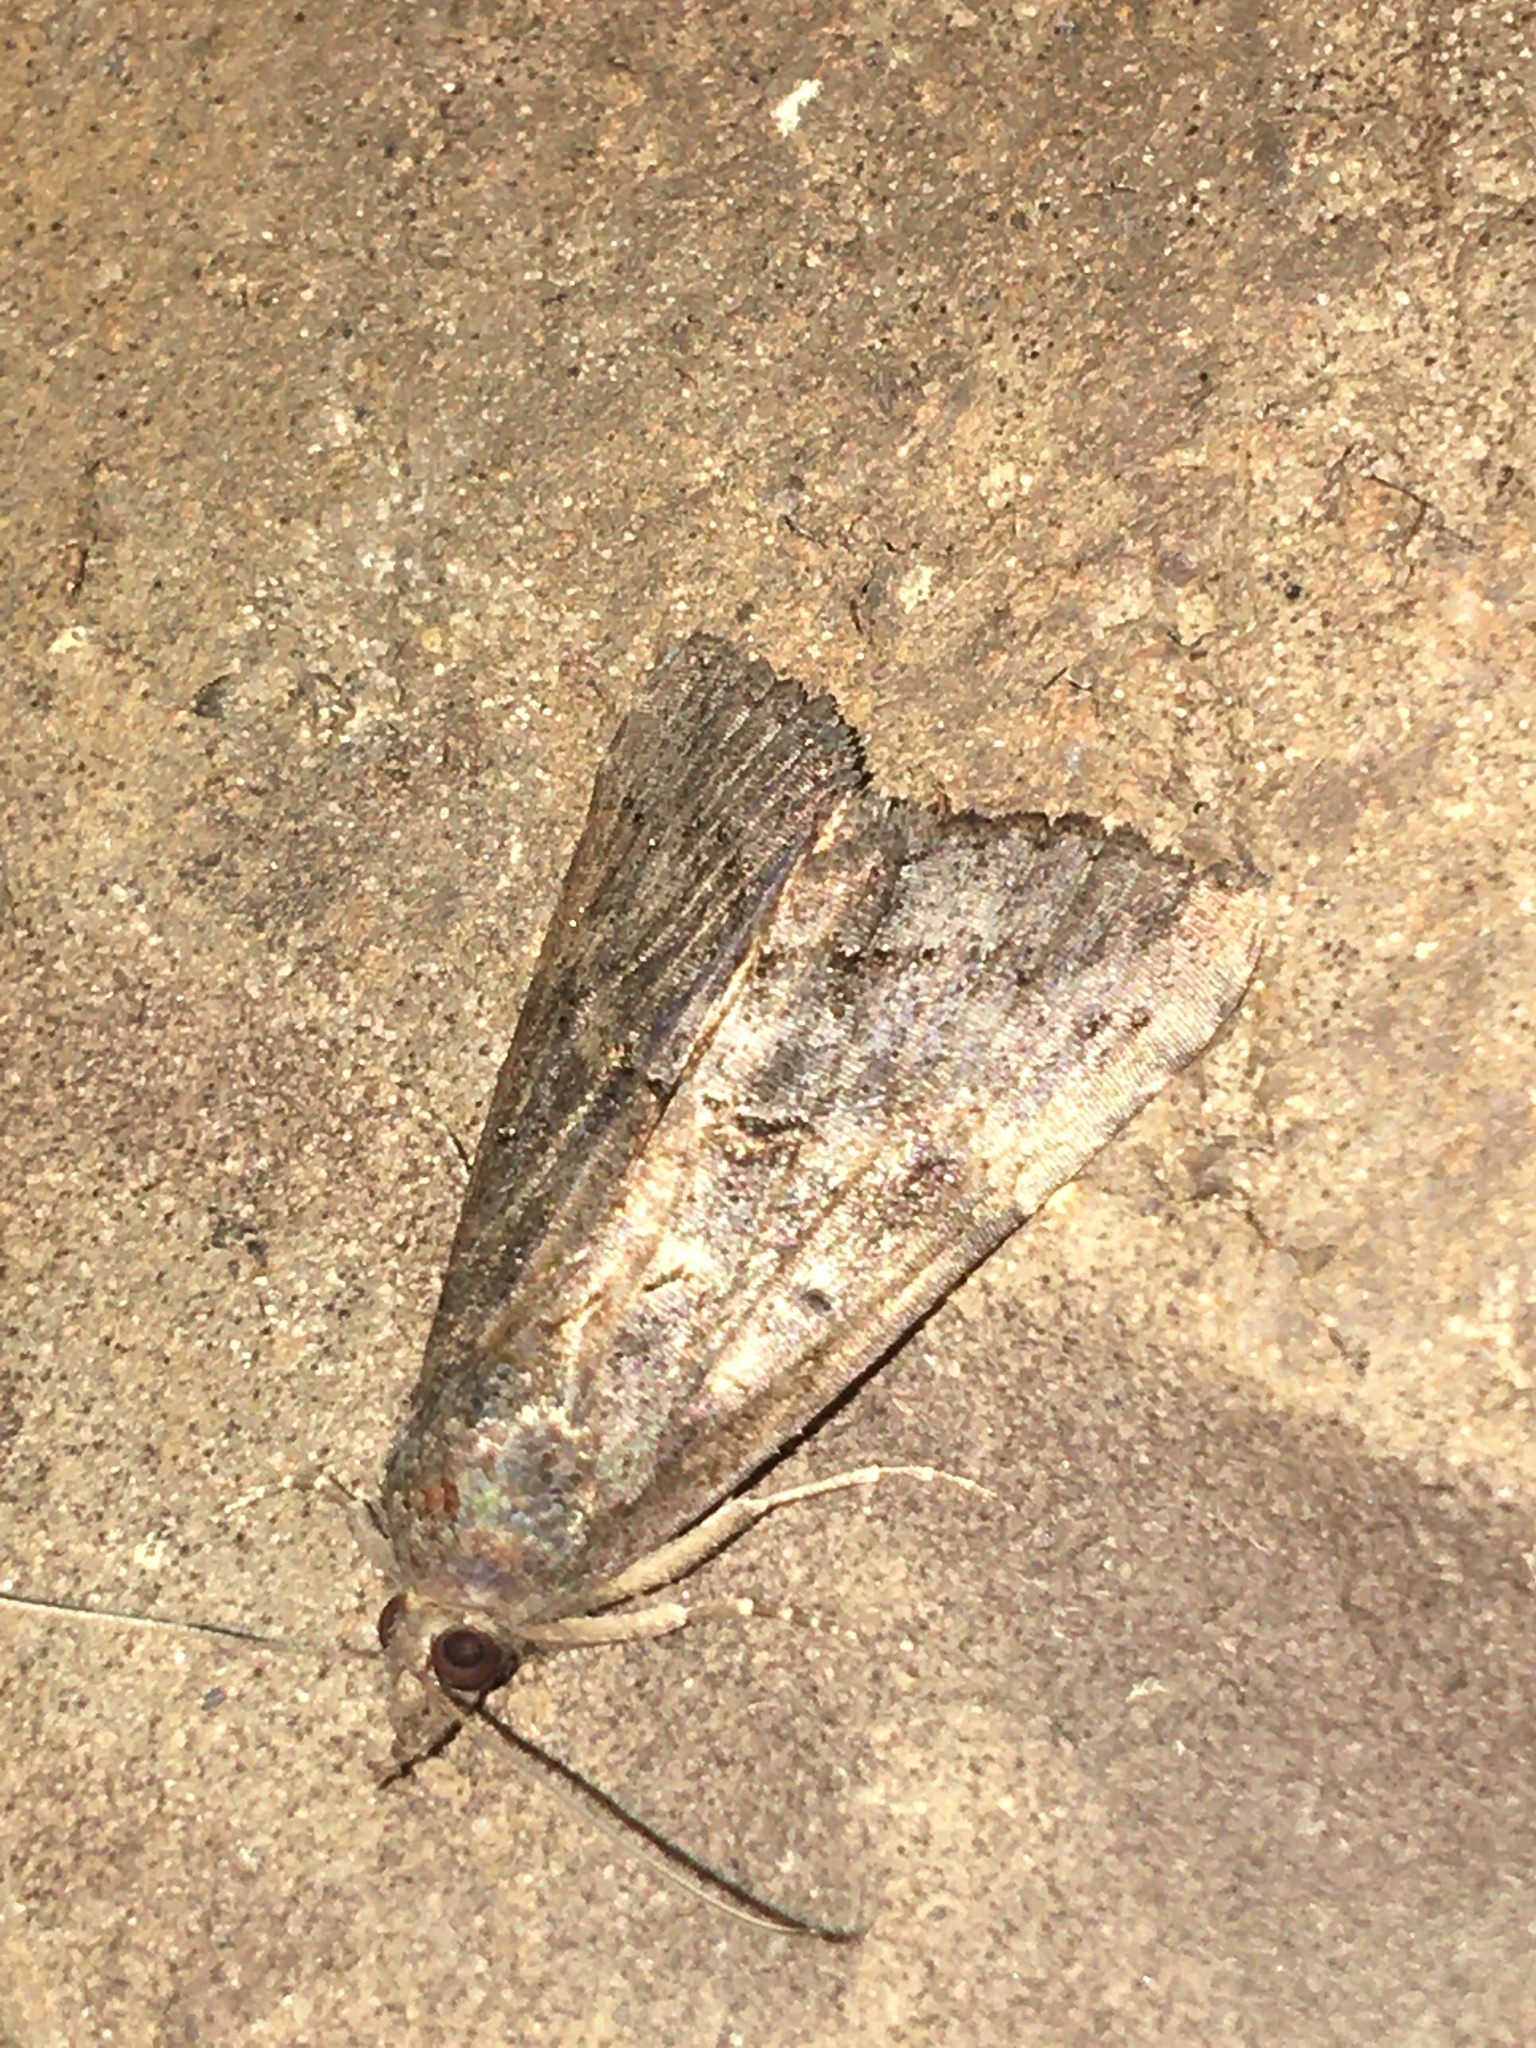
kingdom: Animalia
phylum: Arthropoda
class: Insecta
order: Lepidoptera
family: Erebidae
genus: Hypena
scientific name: Hypena scabra
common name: Green cloverworm
